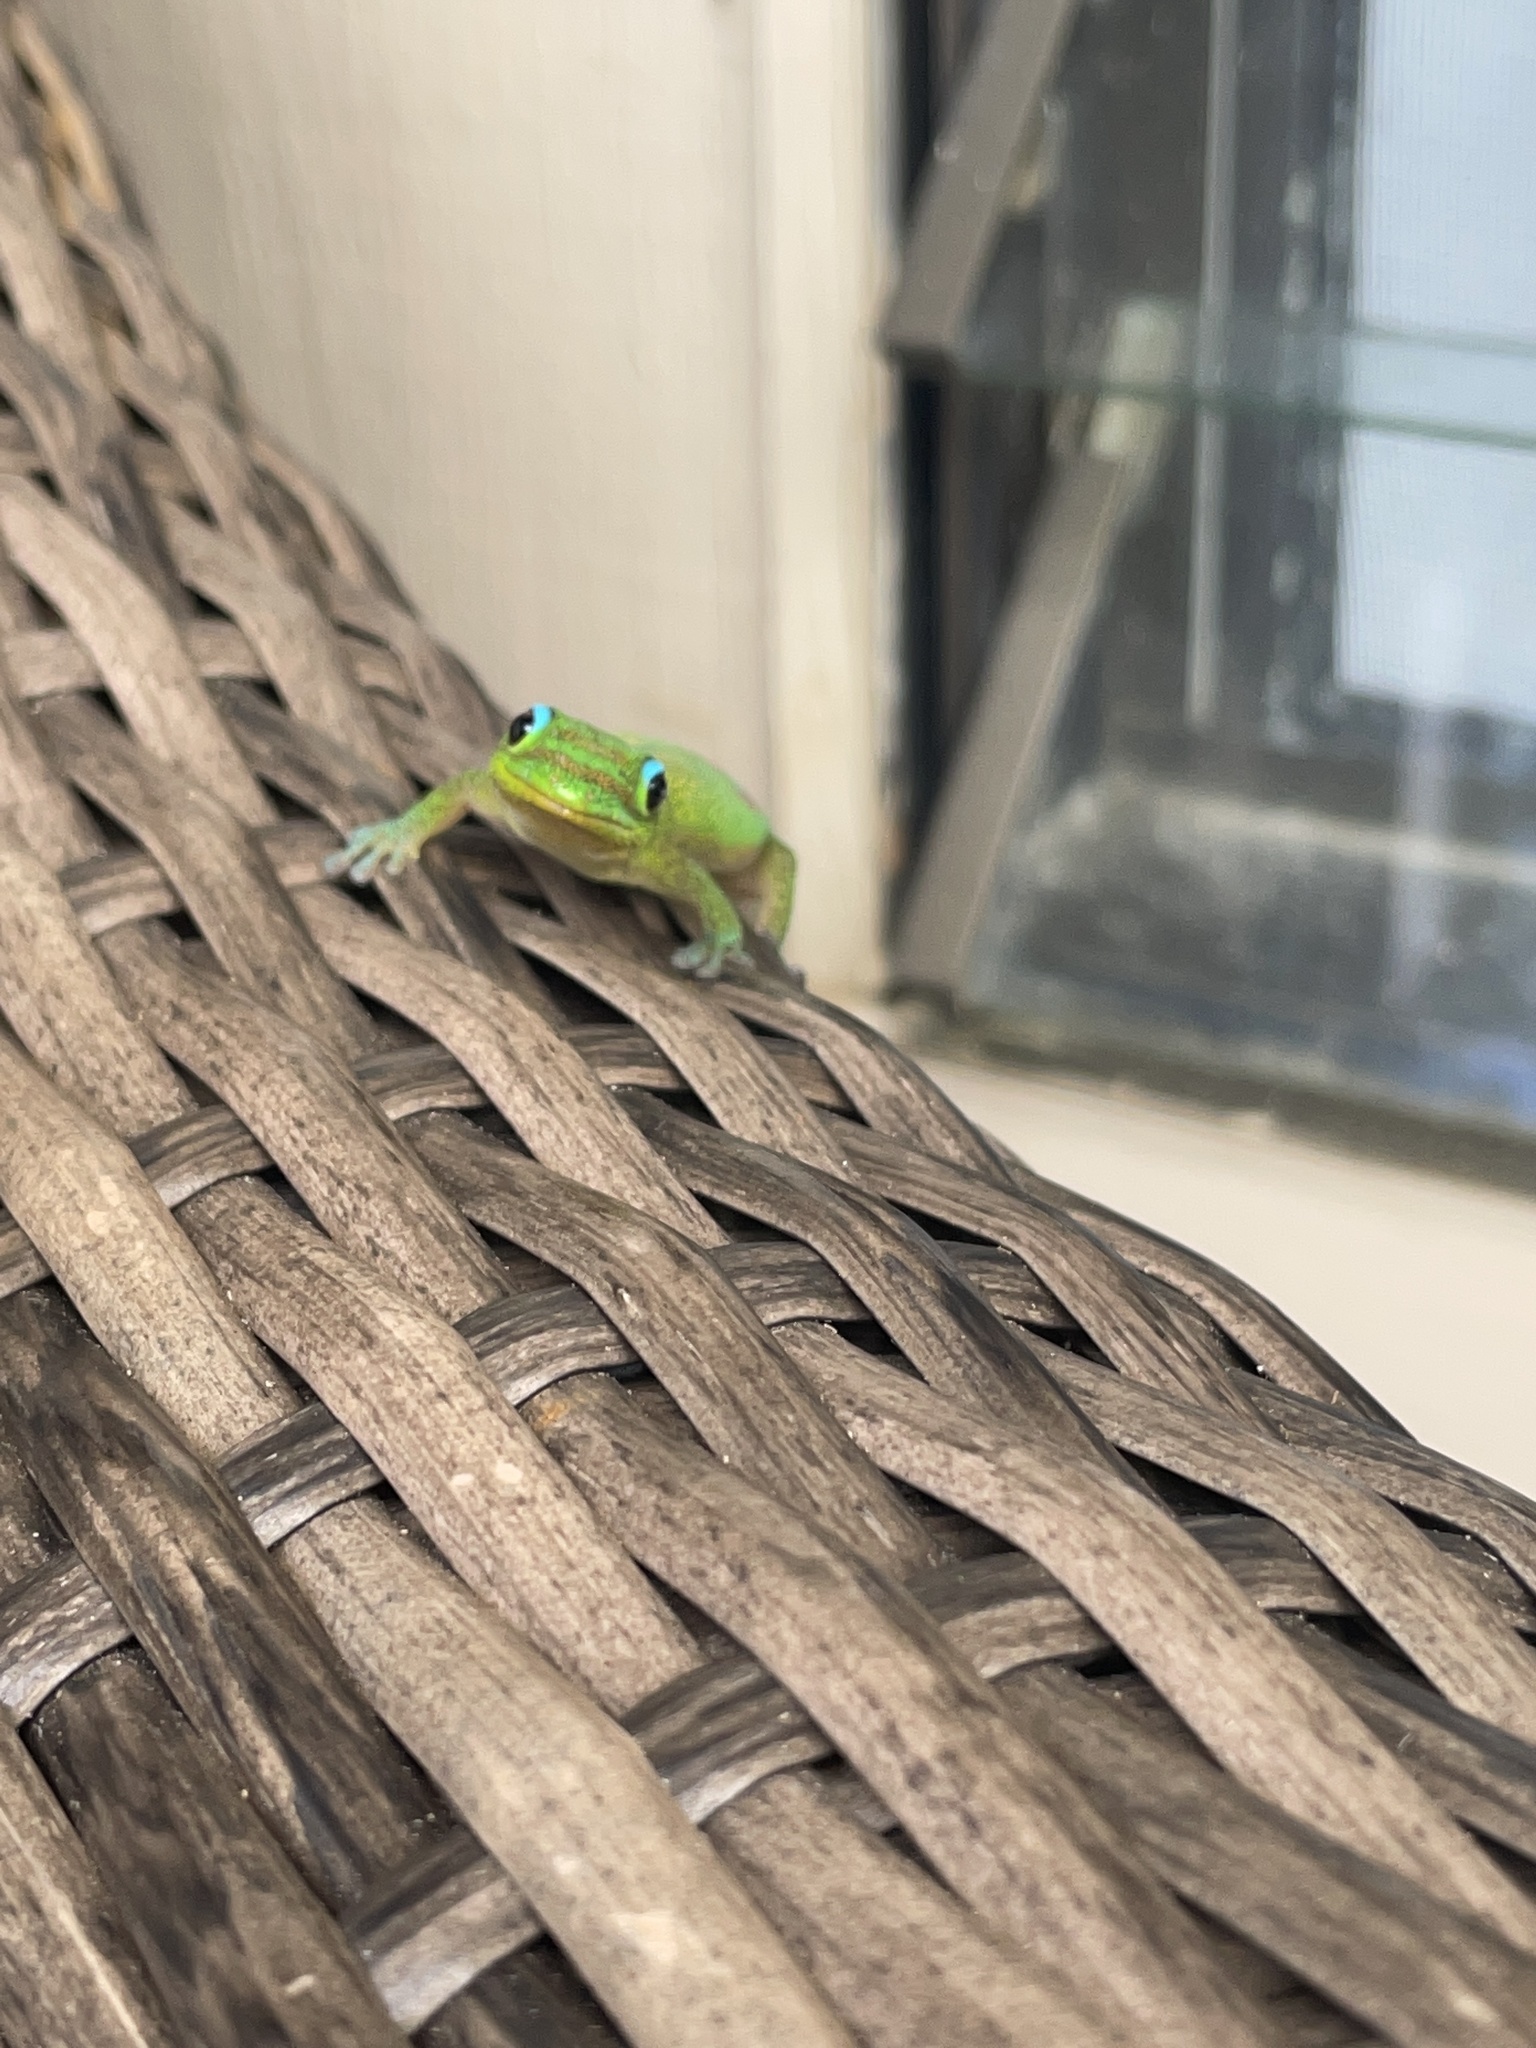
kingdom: Animalia
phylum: Chordata
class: Squamata
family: Gekkonidae
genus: Phelsuma
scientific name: Phelsuma laticauda
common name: Gold dust day gecko
